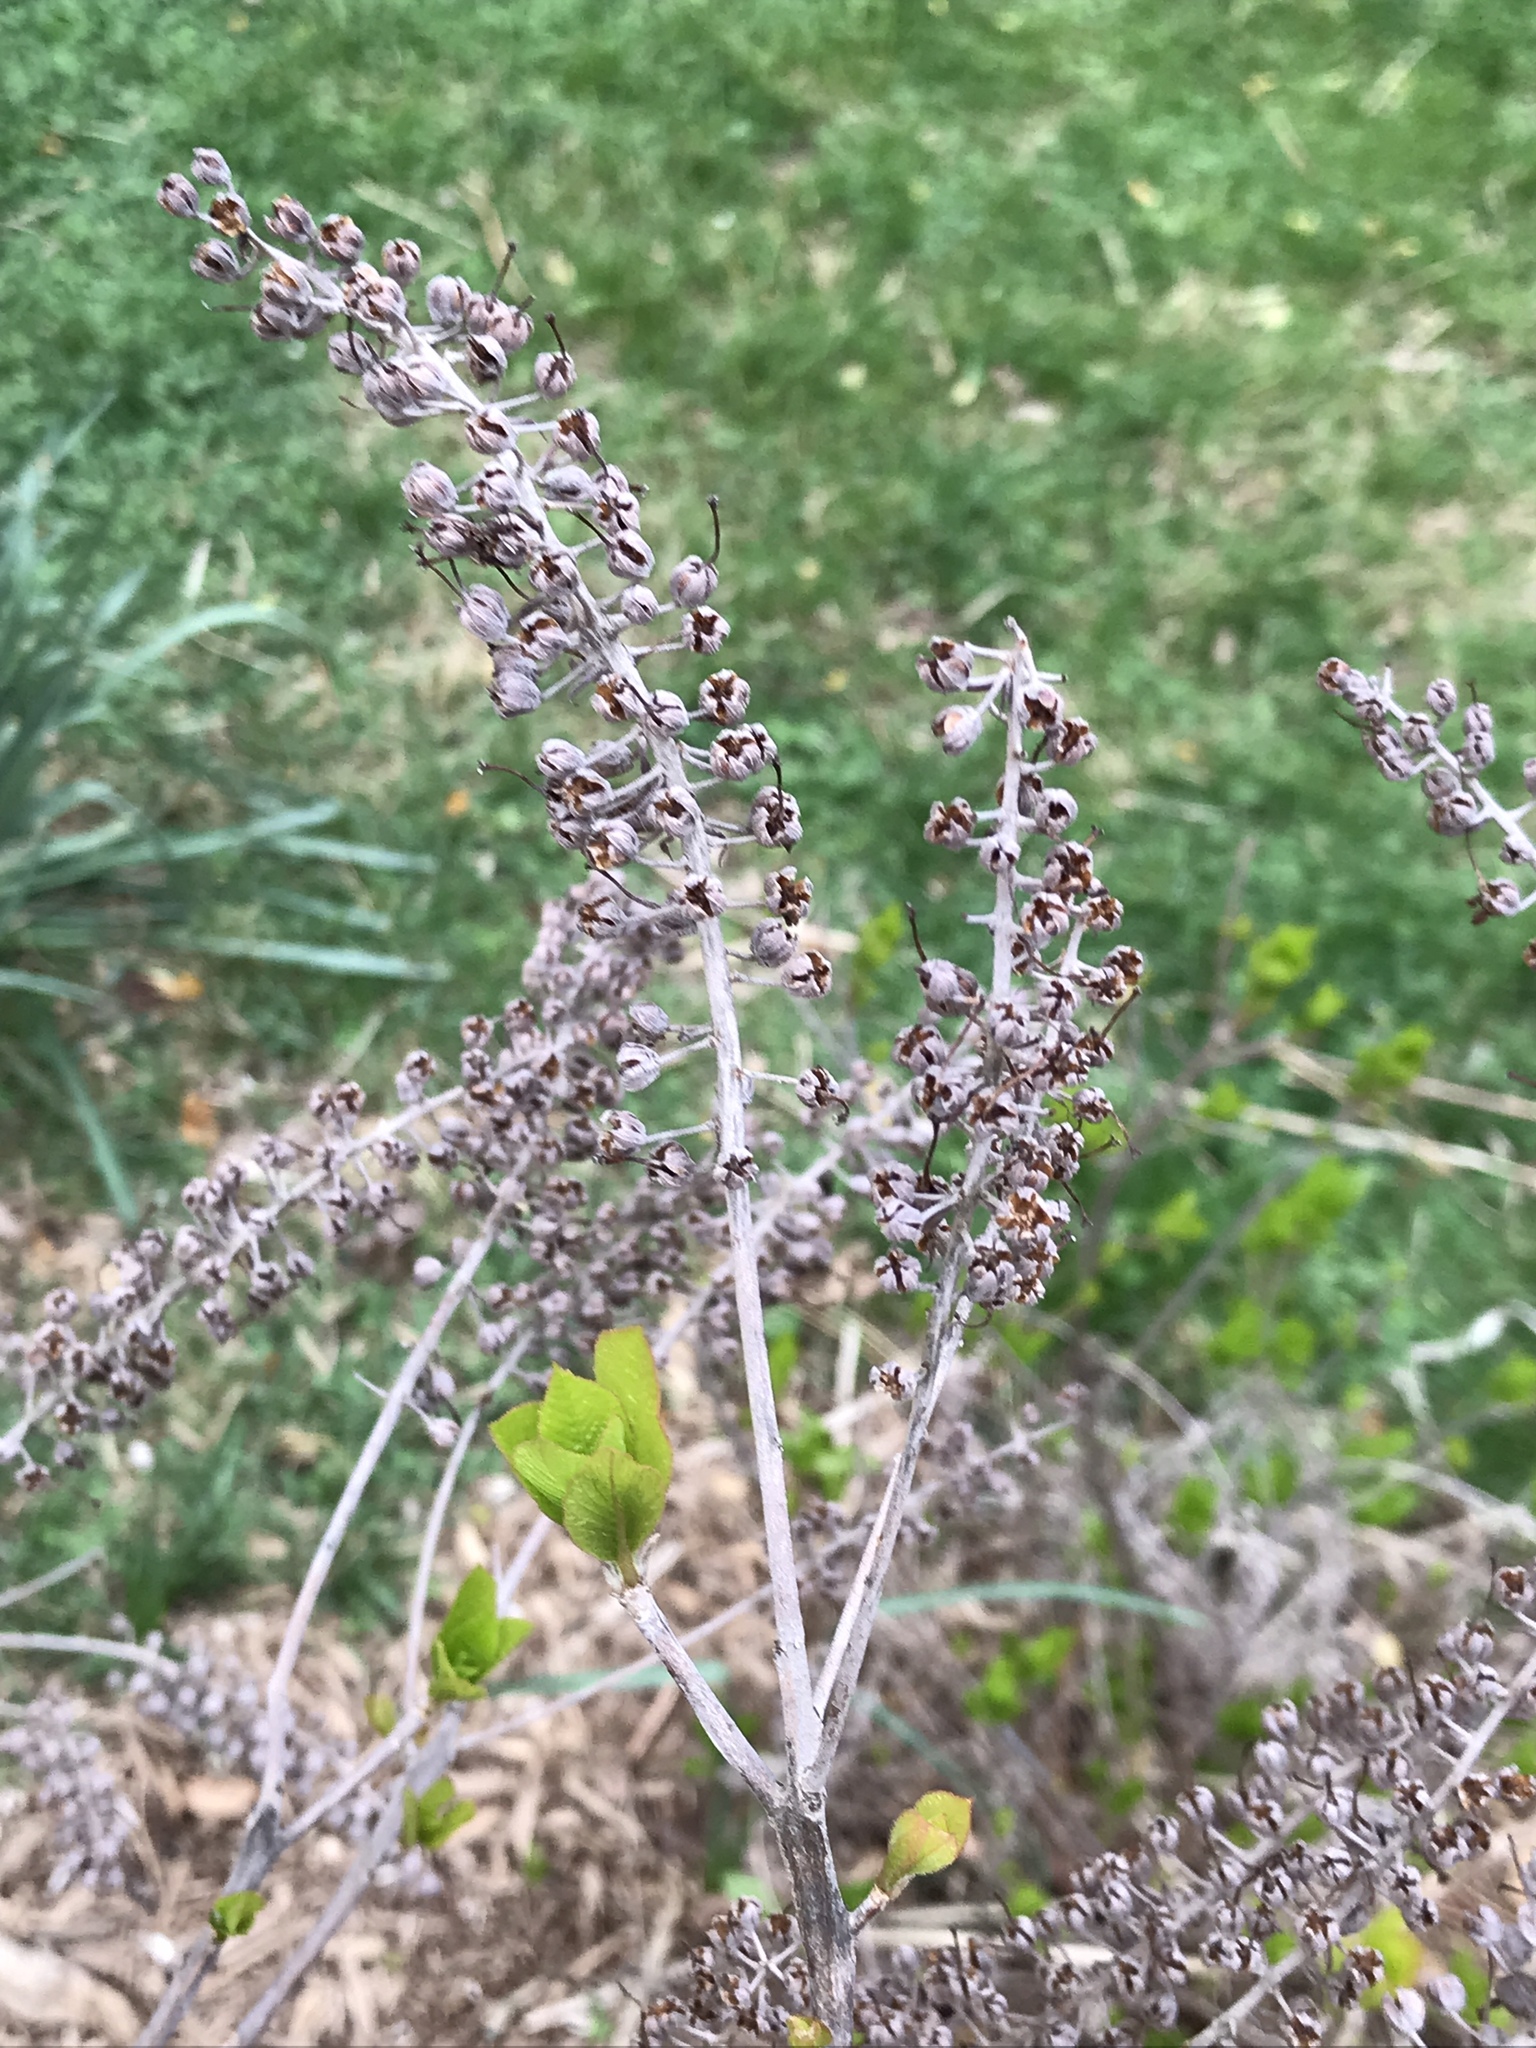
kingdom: Plantae
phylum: Tracheophyta
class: Magnoliopsida
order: Ericales
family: Clethraceae
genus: Clethra
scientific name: Clethra alnifolia
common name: Sweet pepperbush
